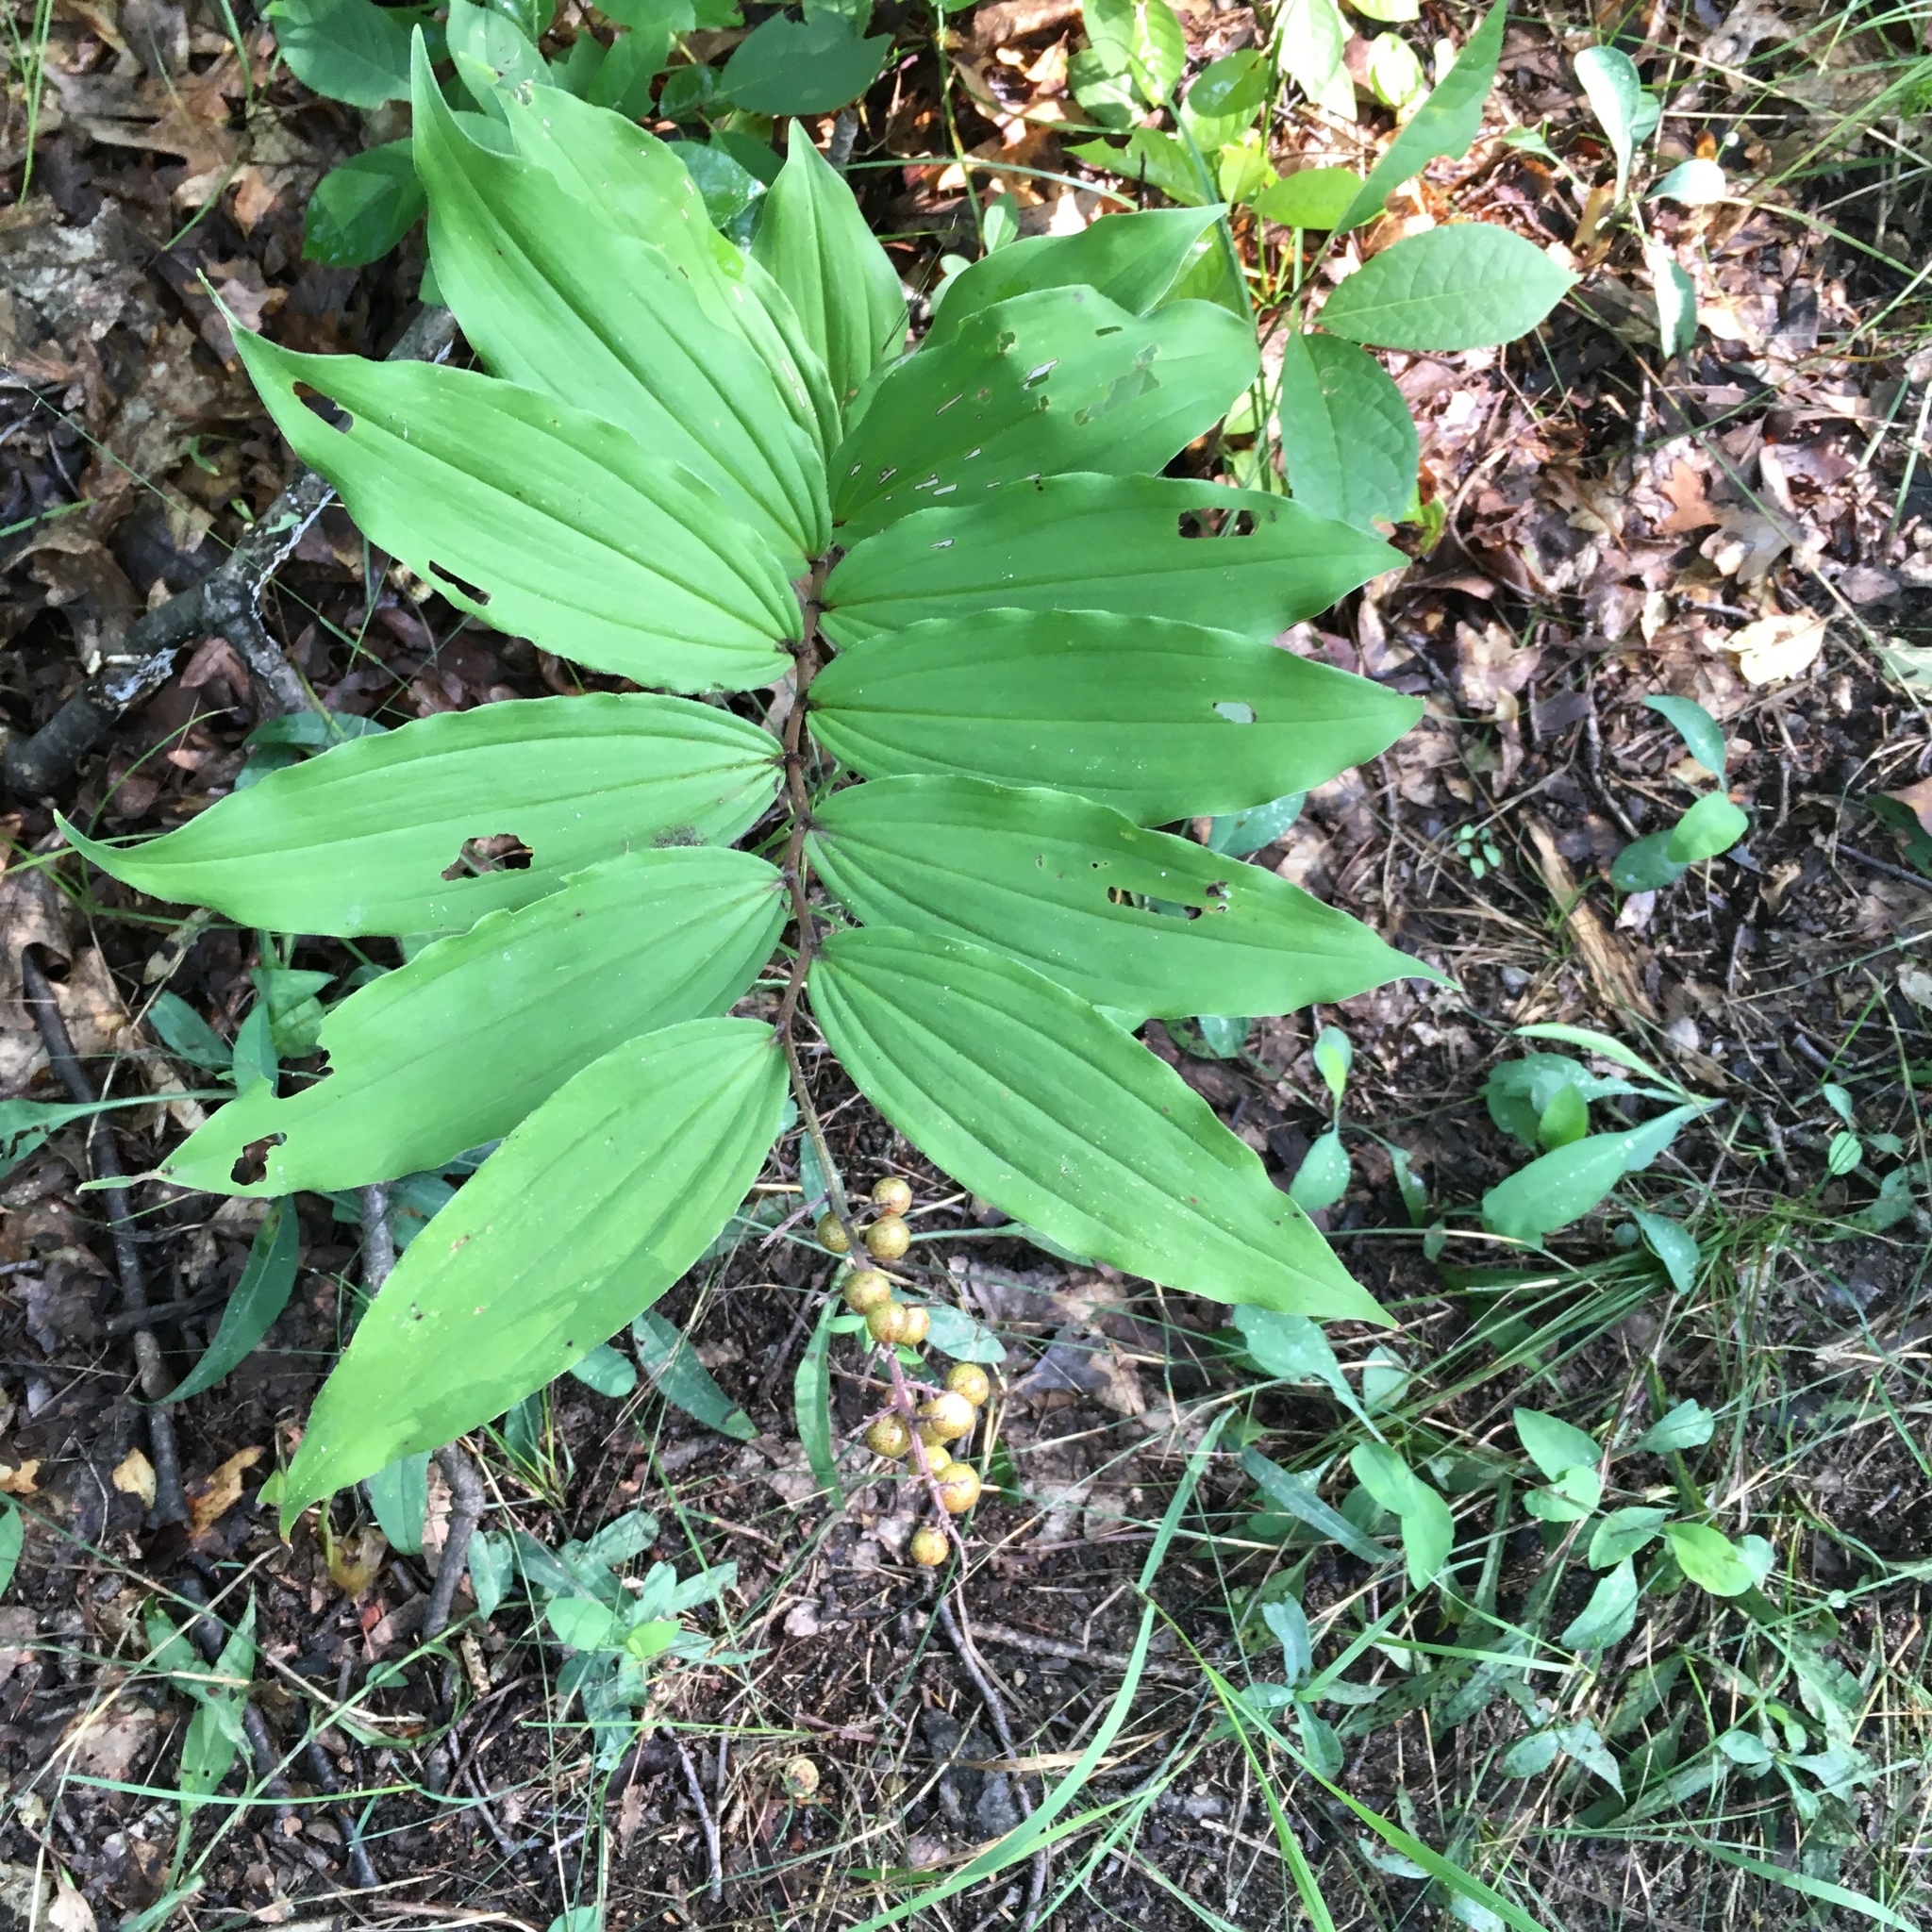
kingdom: Plantae
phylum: Tracheophyta
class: Liliopsida
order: Asparagales
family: Asparagaceae
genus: Maianthemum
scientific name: Maianthemum racemosum
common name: False spikenard
